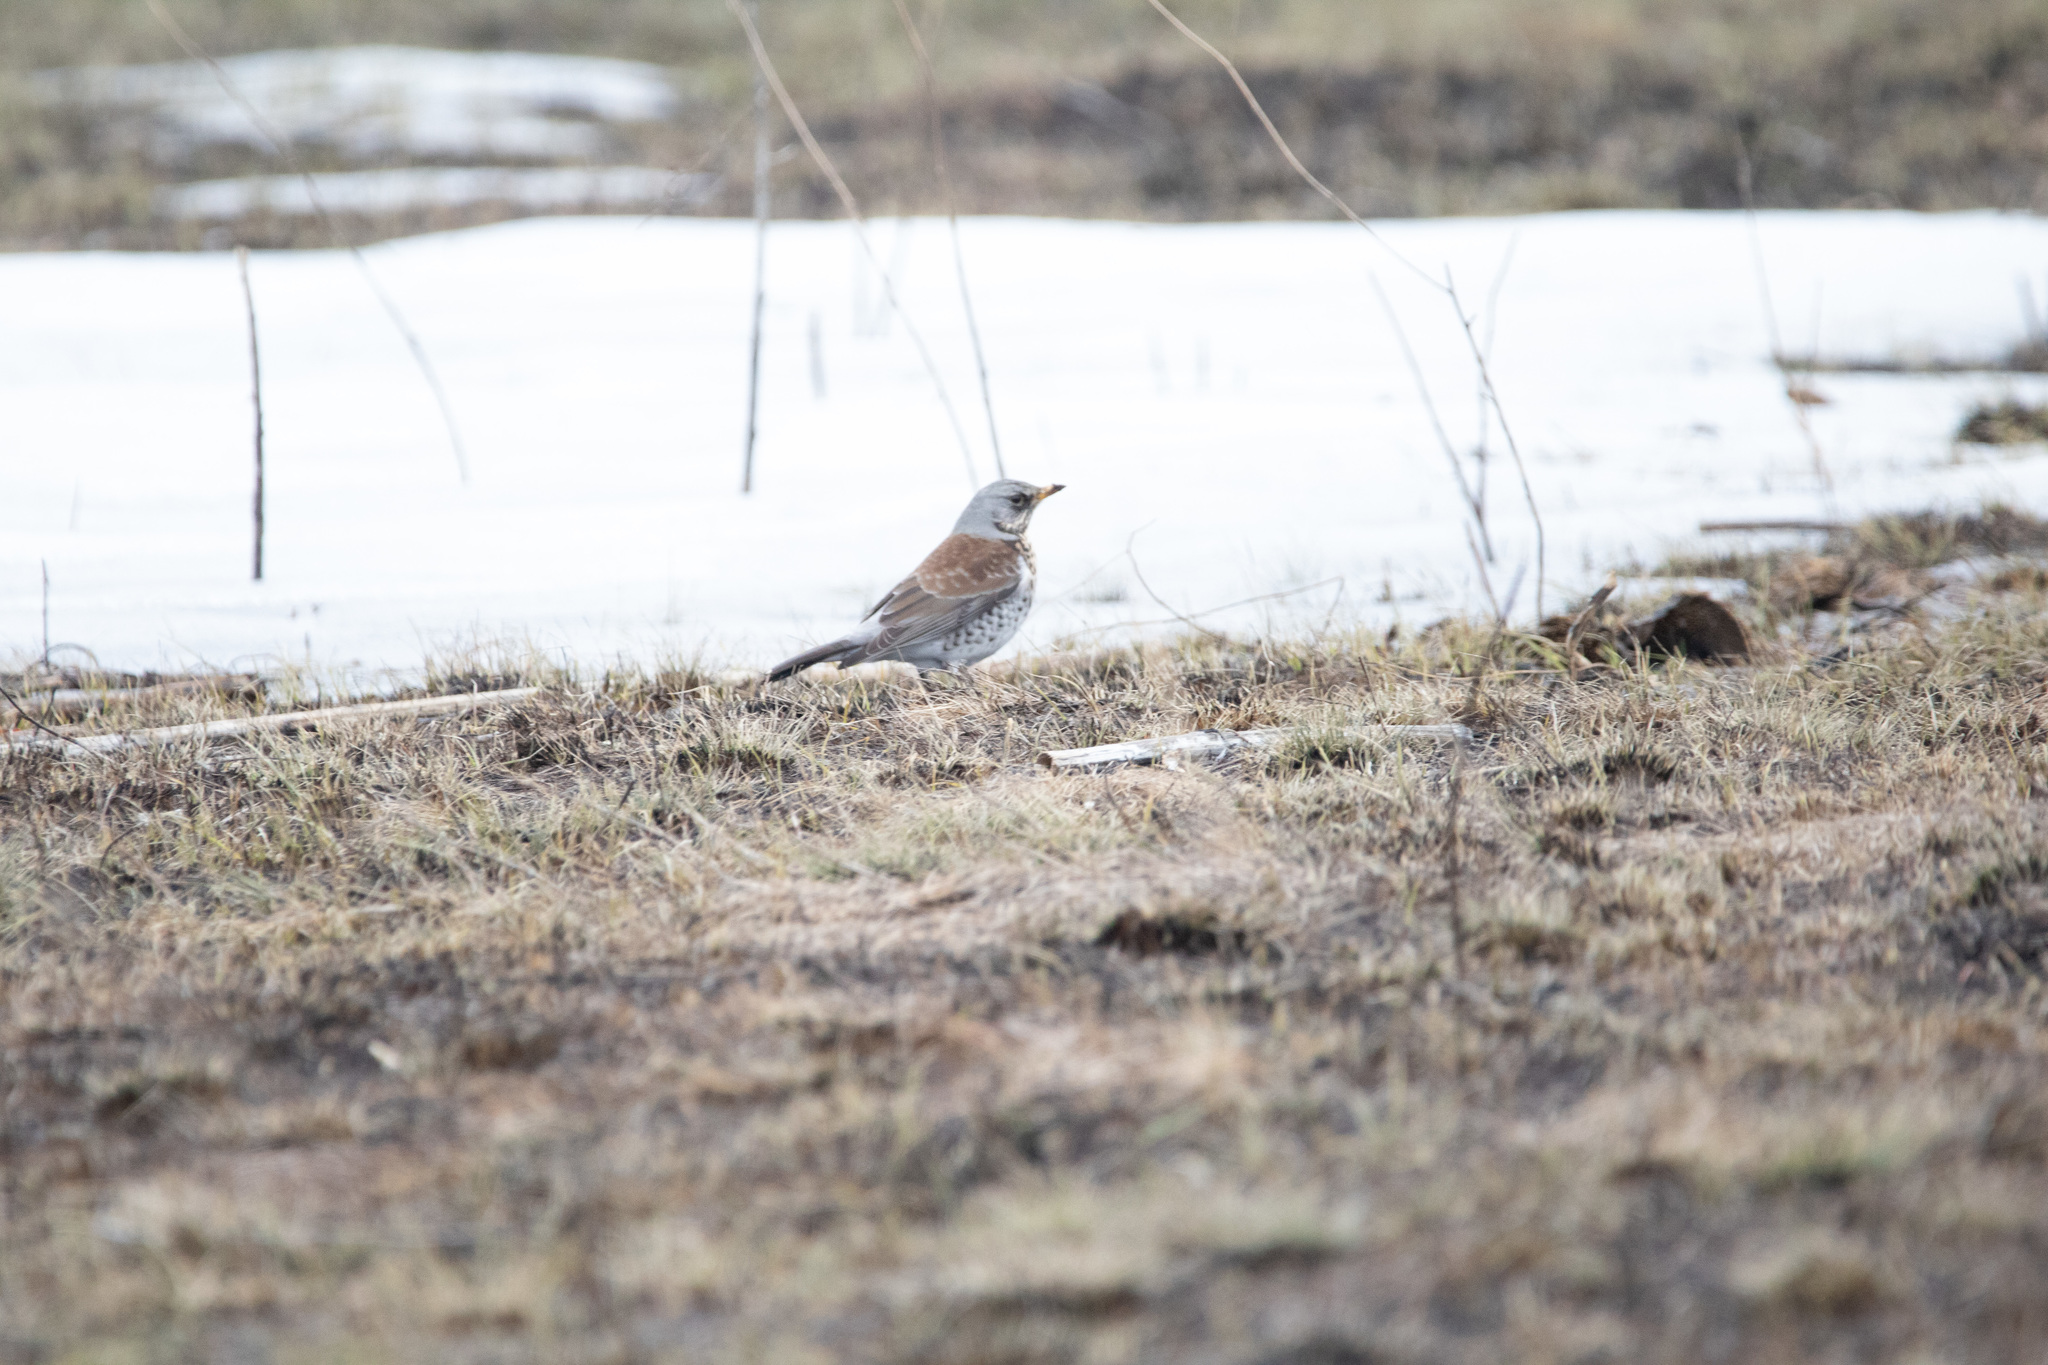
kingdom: Animalia
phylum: Chordata
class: Aves
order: Passeriformes
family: Turdidae
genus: Turdus
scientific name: Turdus pilaris
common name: Fieldfare
